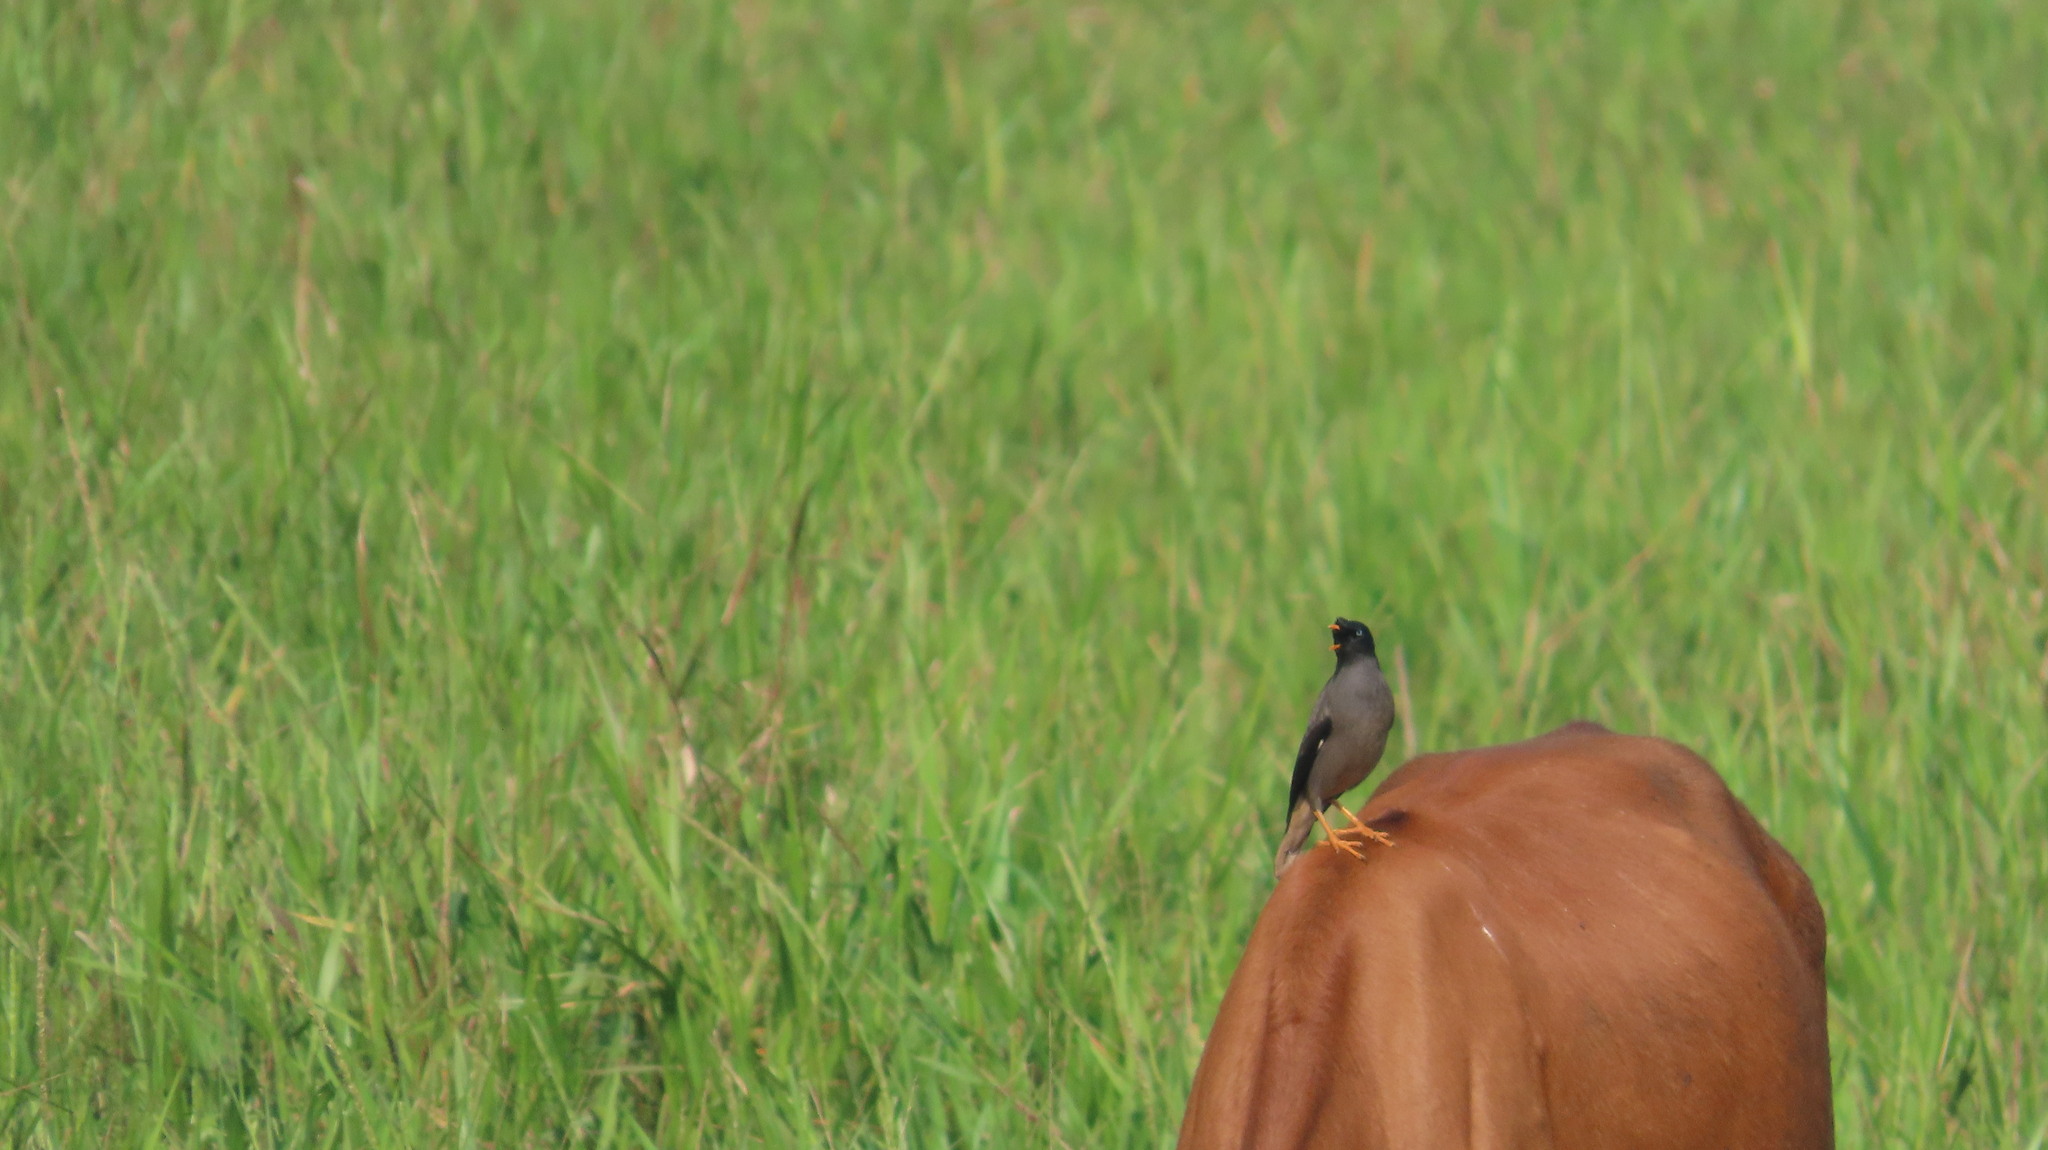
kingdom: Animalia
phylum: Chordata
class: Aves
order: Passeriformes
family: Sturnidae
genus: Acridotheres
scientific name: Acridotheres fuscus
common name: Jungle myna
